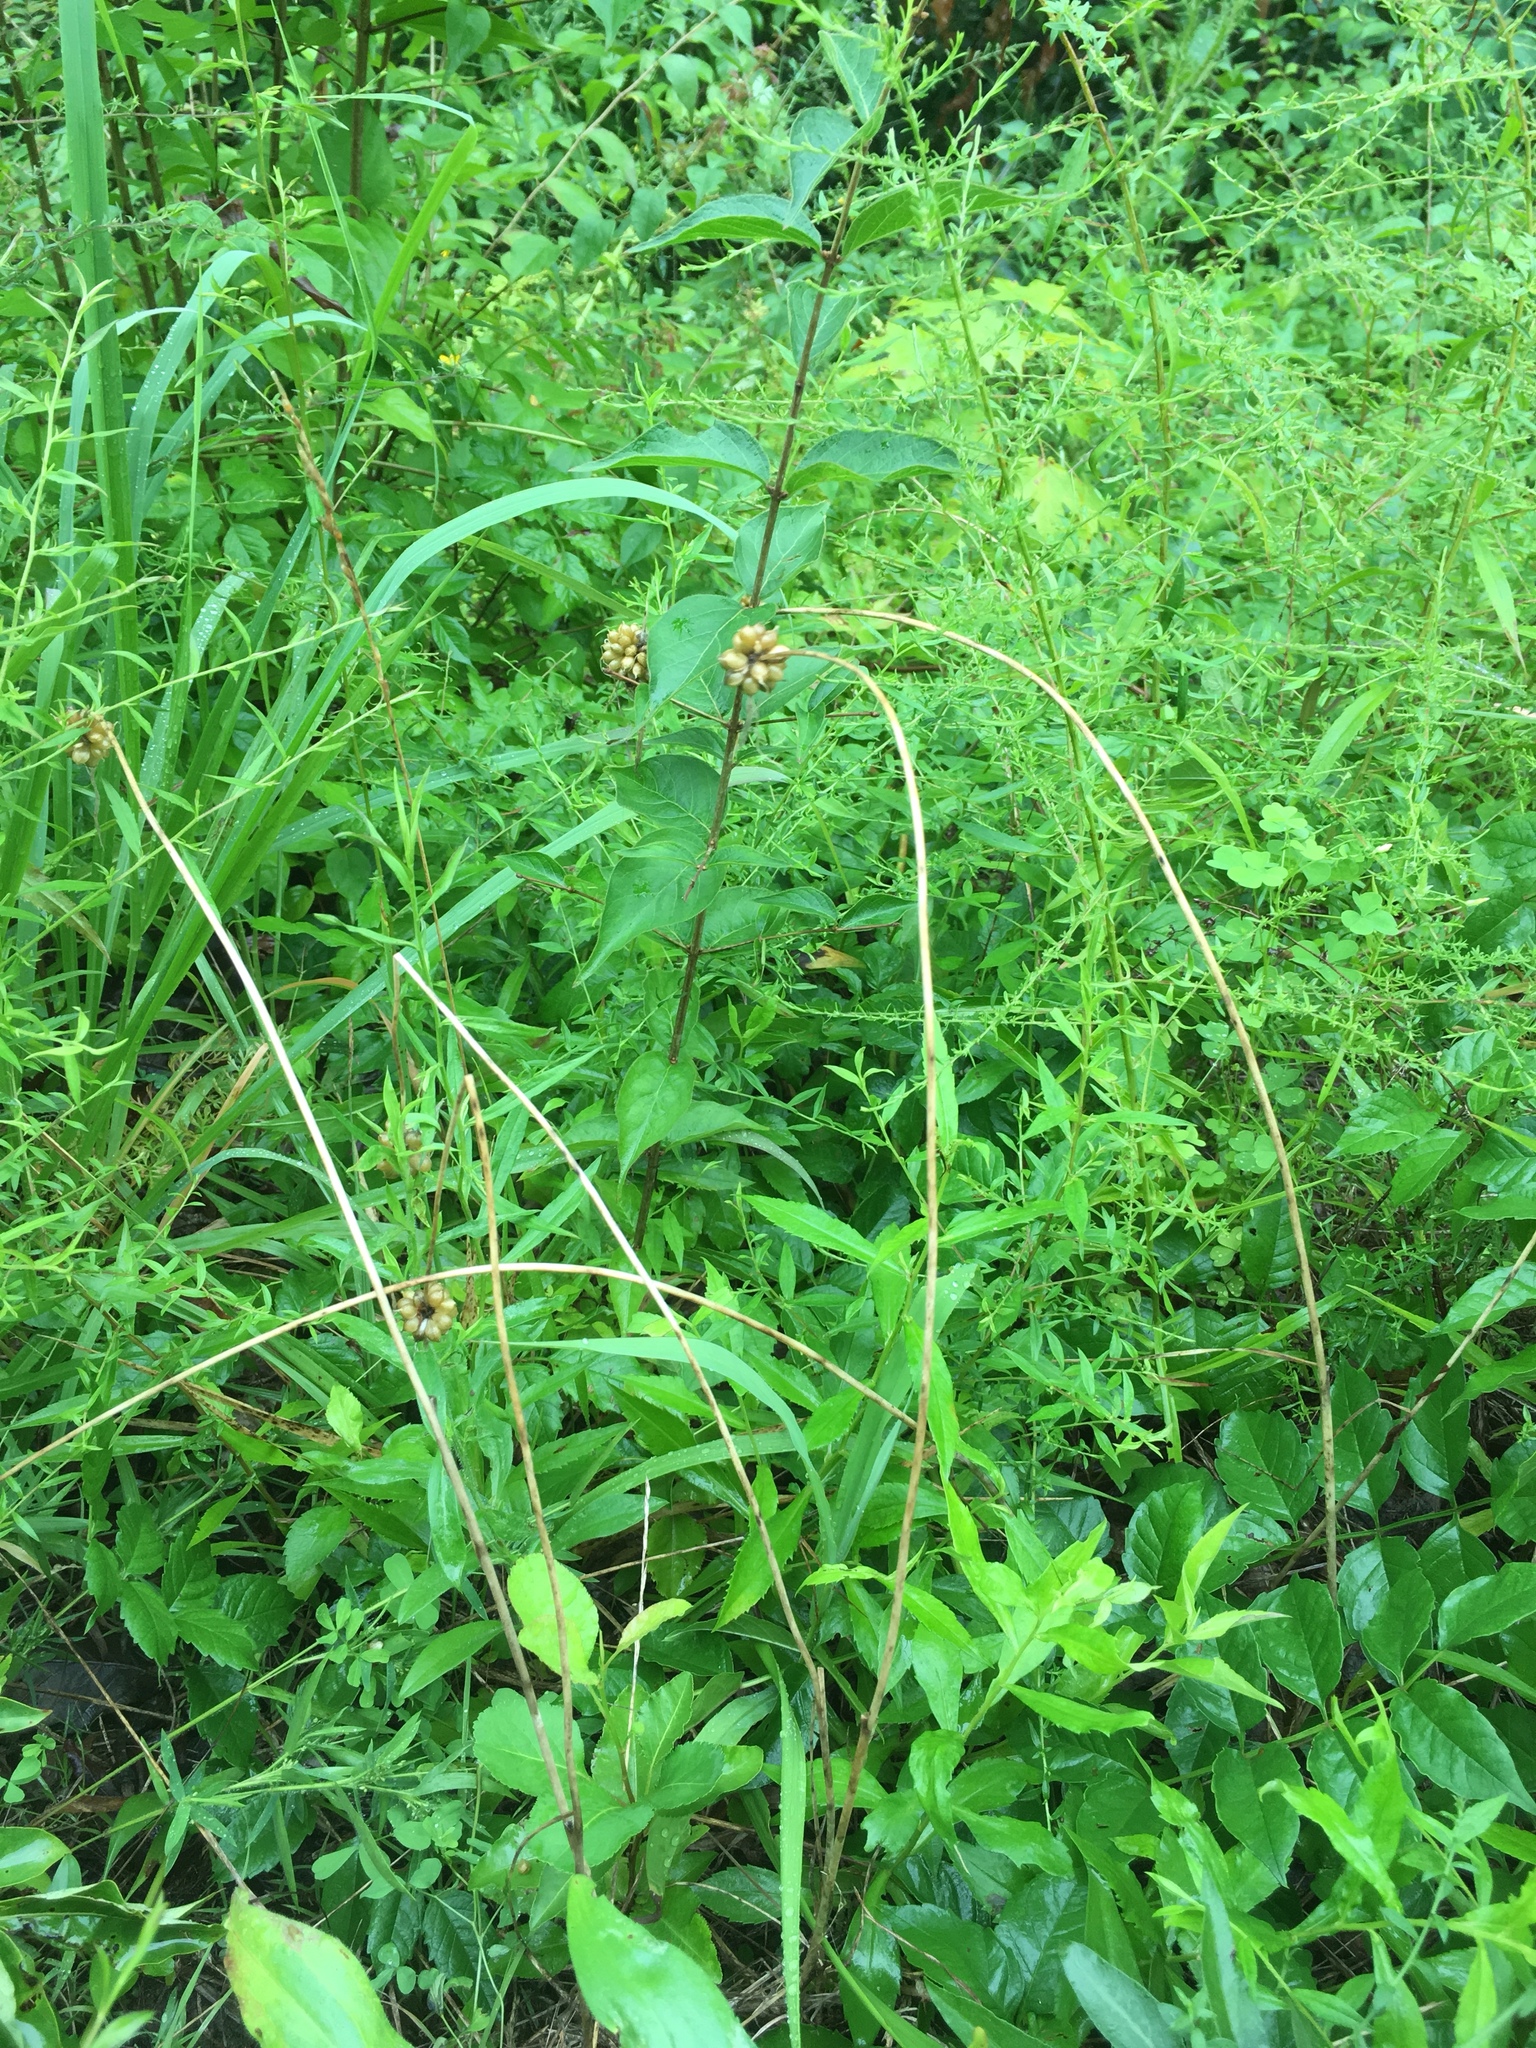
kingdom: Plantae
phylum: Tracheophyta
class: Liliopsida
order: Asparagales
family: Amaryllidaceae
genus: Allium
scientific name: Allium vineale
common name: Crow garlic
